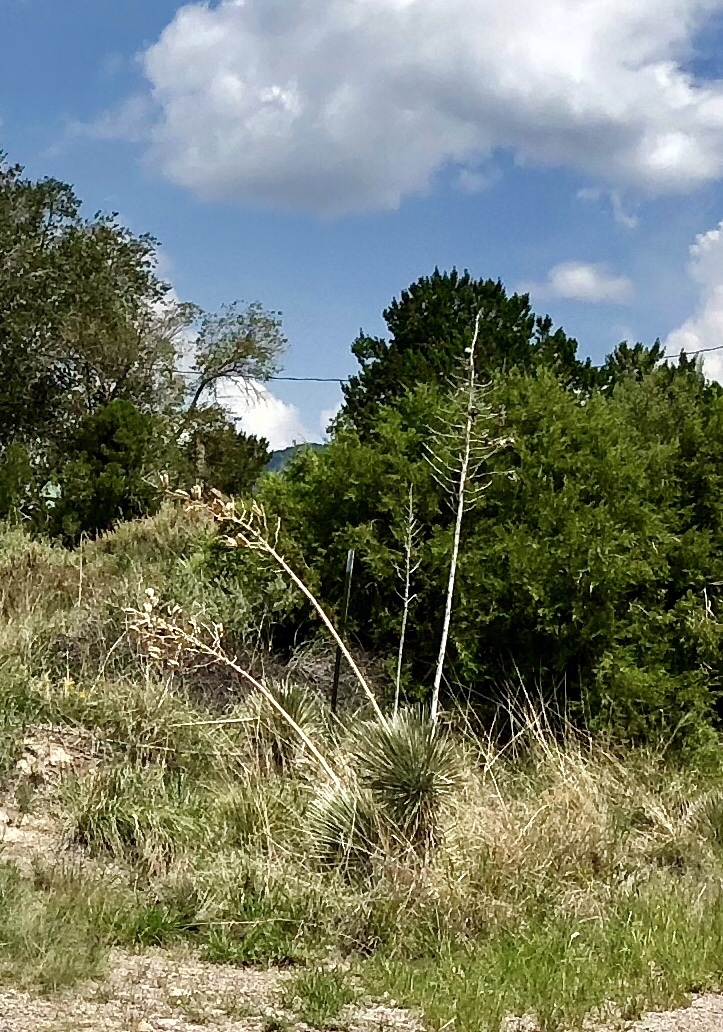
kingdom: Plantae
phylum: Tracheophyta
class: Liliopsida
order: Asparagales
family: Asparagaceae
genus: Yucca
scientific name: Yucca elata
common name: Palmella
